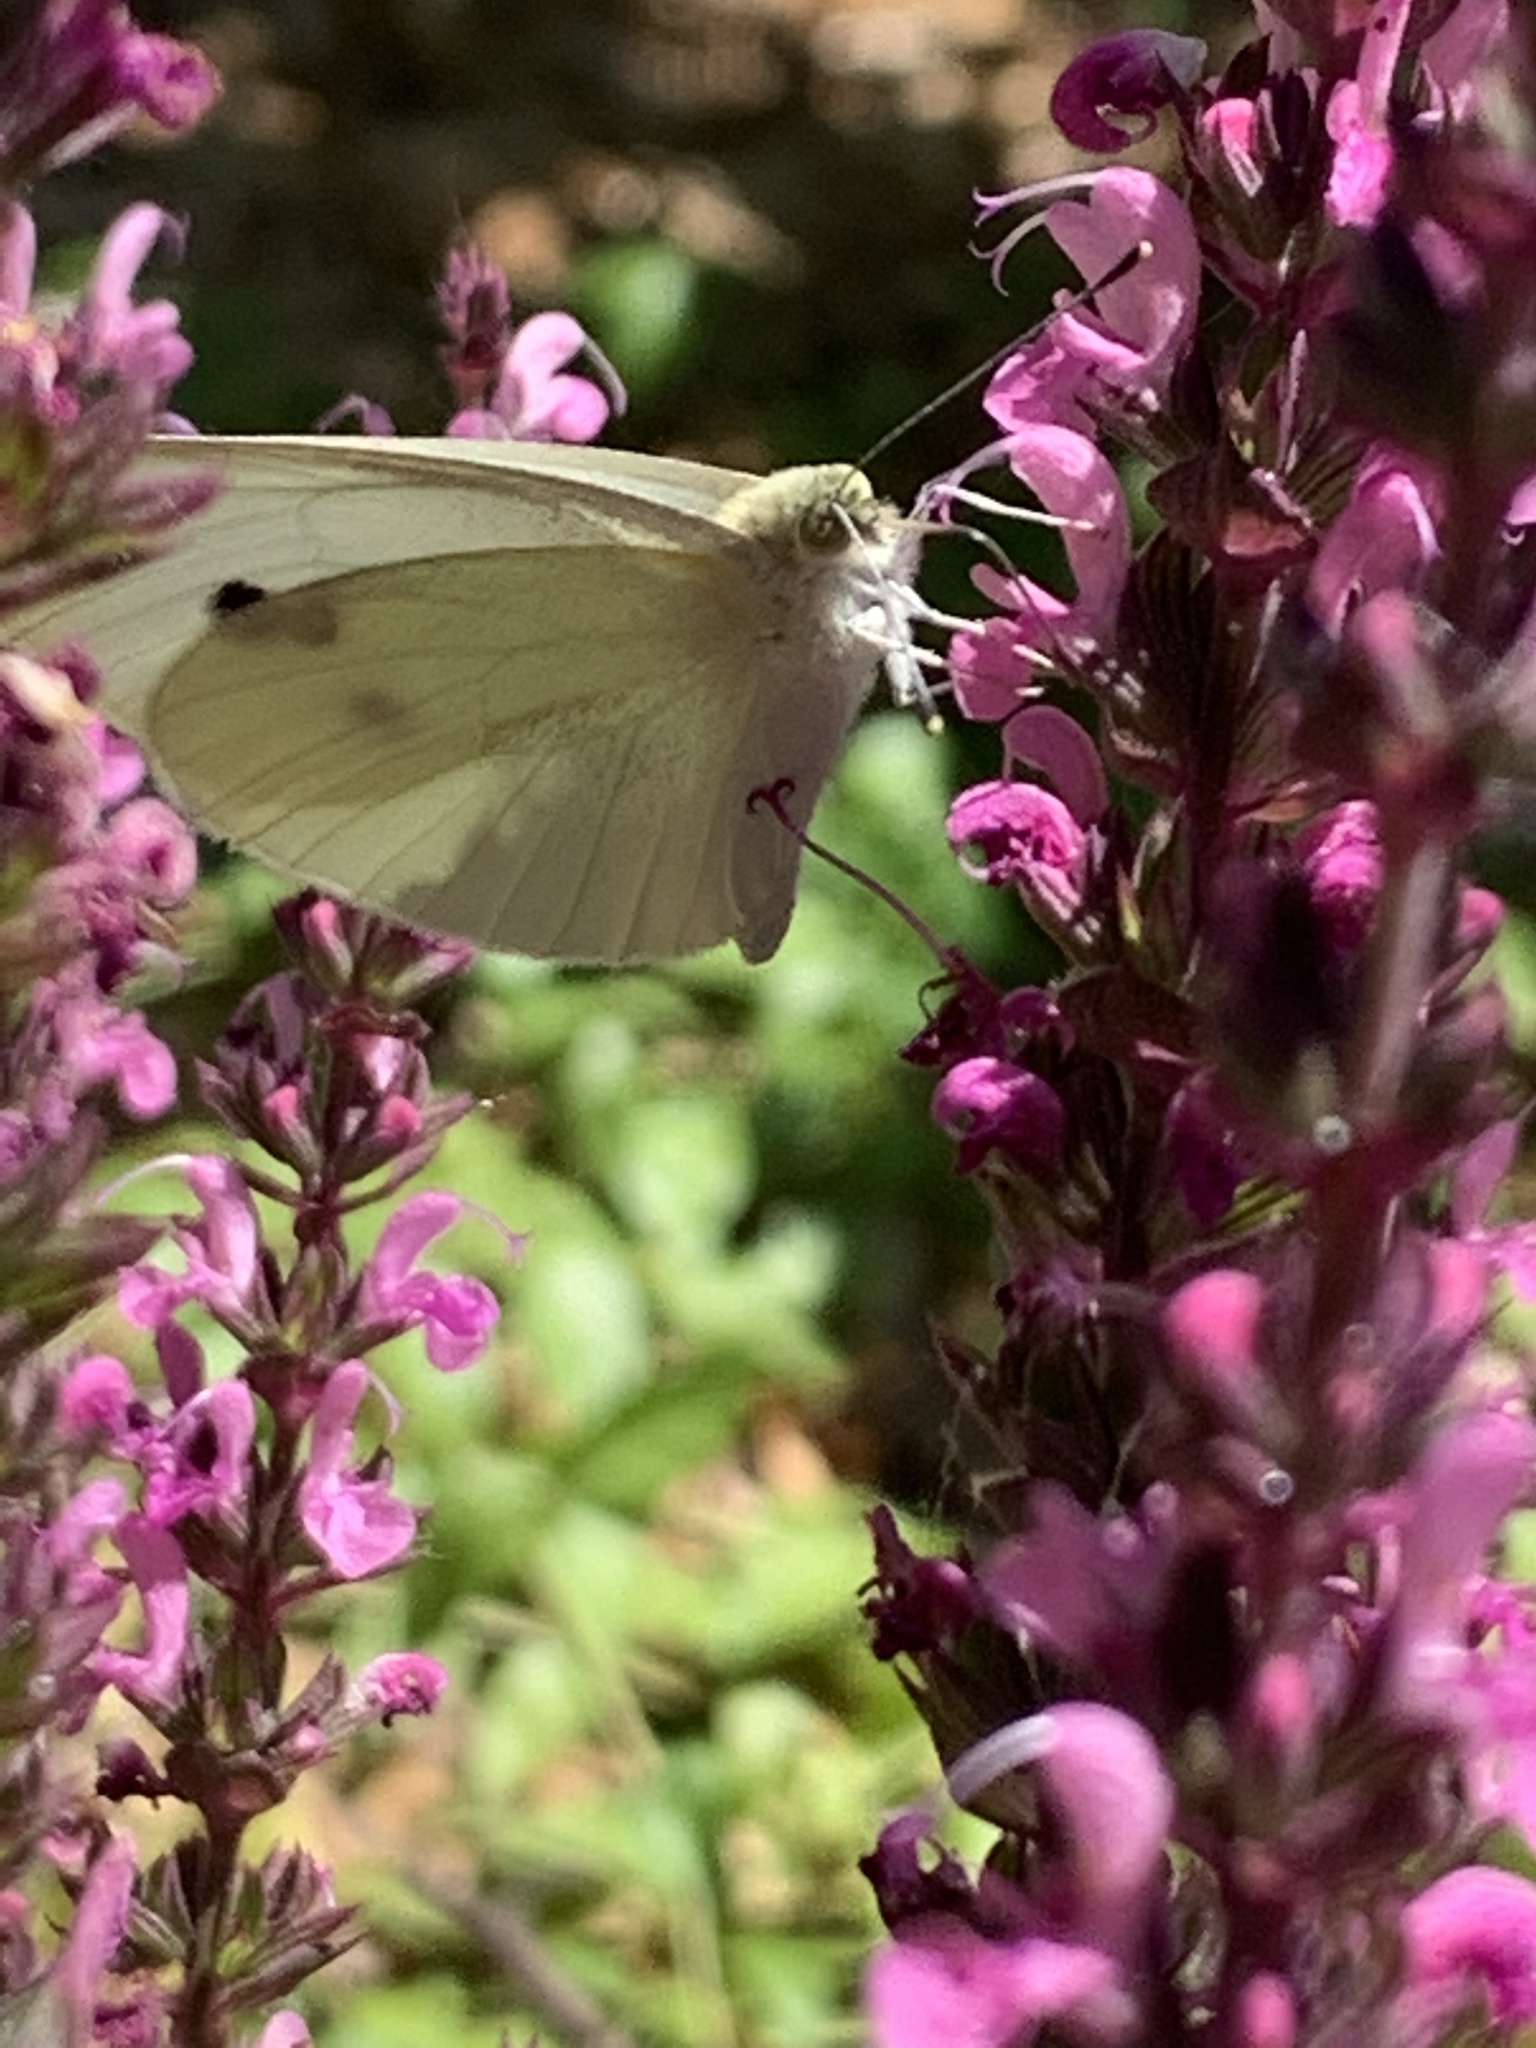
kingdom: Animalia
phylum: Arthropoda
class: Insecta
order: Lepidoptera
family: Pieridae
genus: Pieris
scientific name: Pieris rapae
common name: Small white
